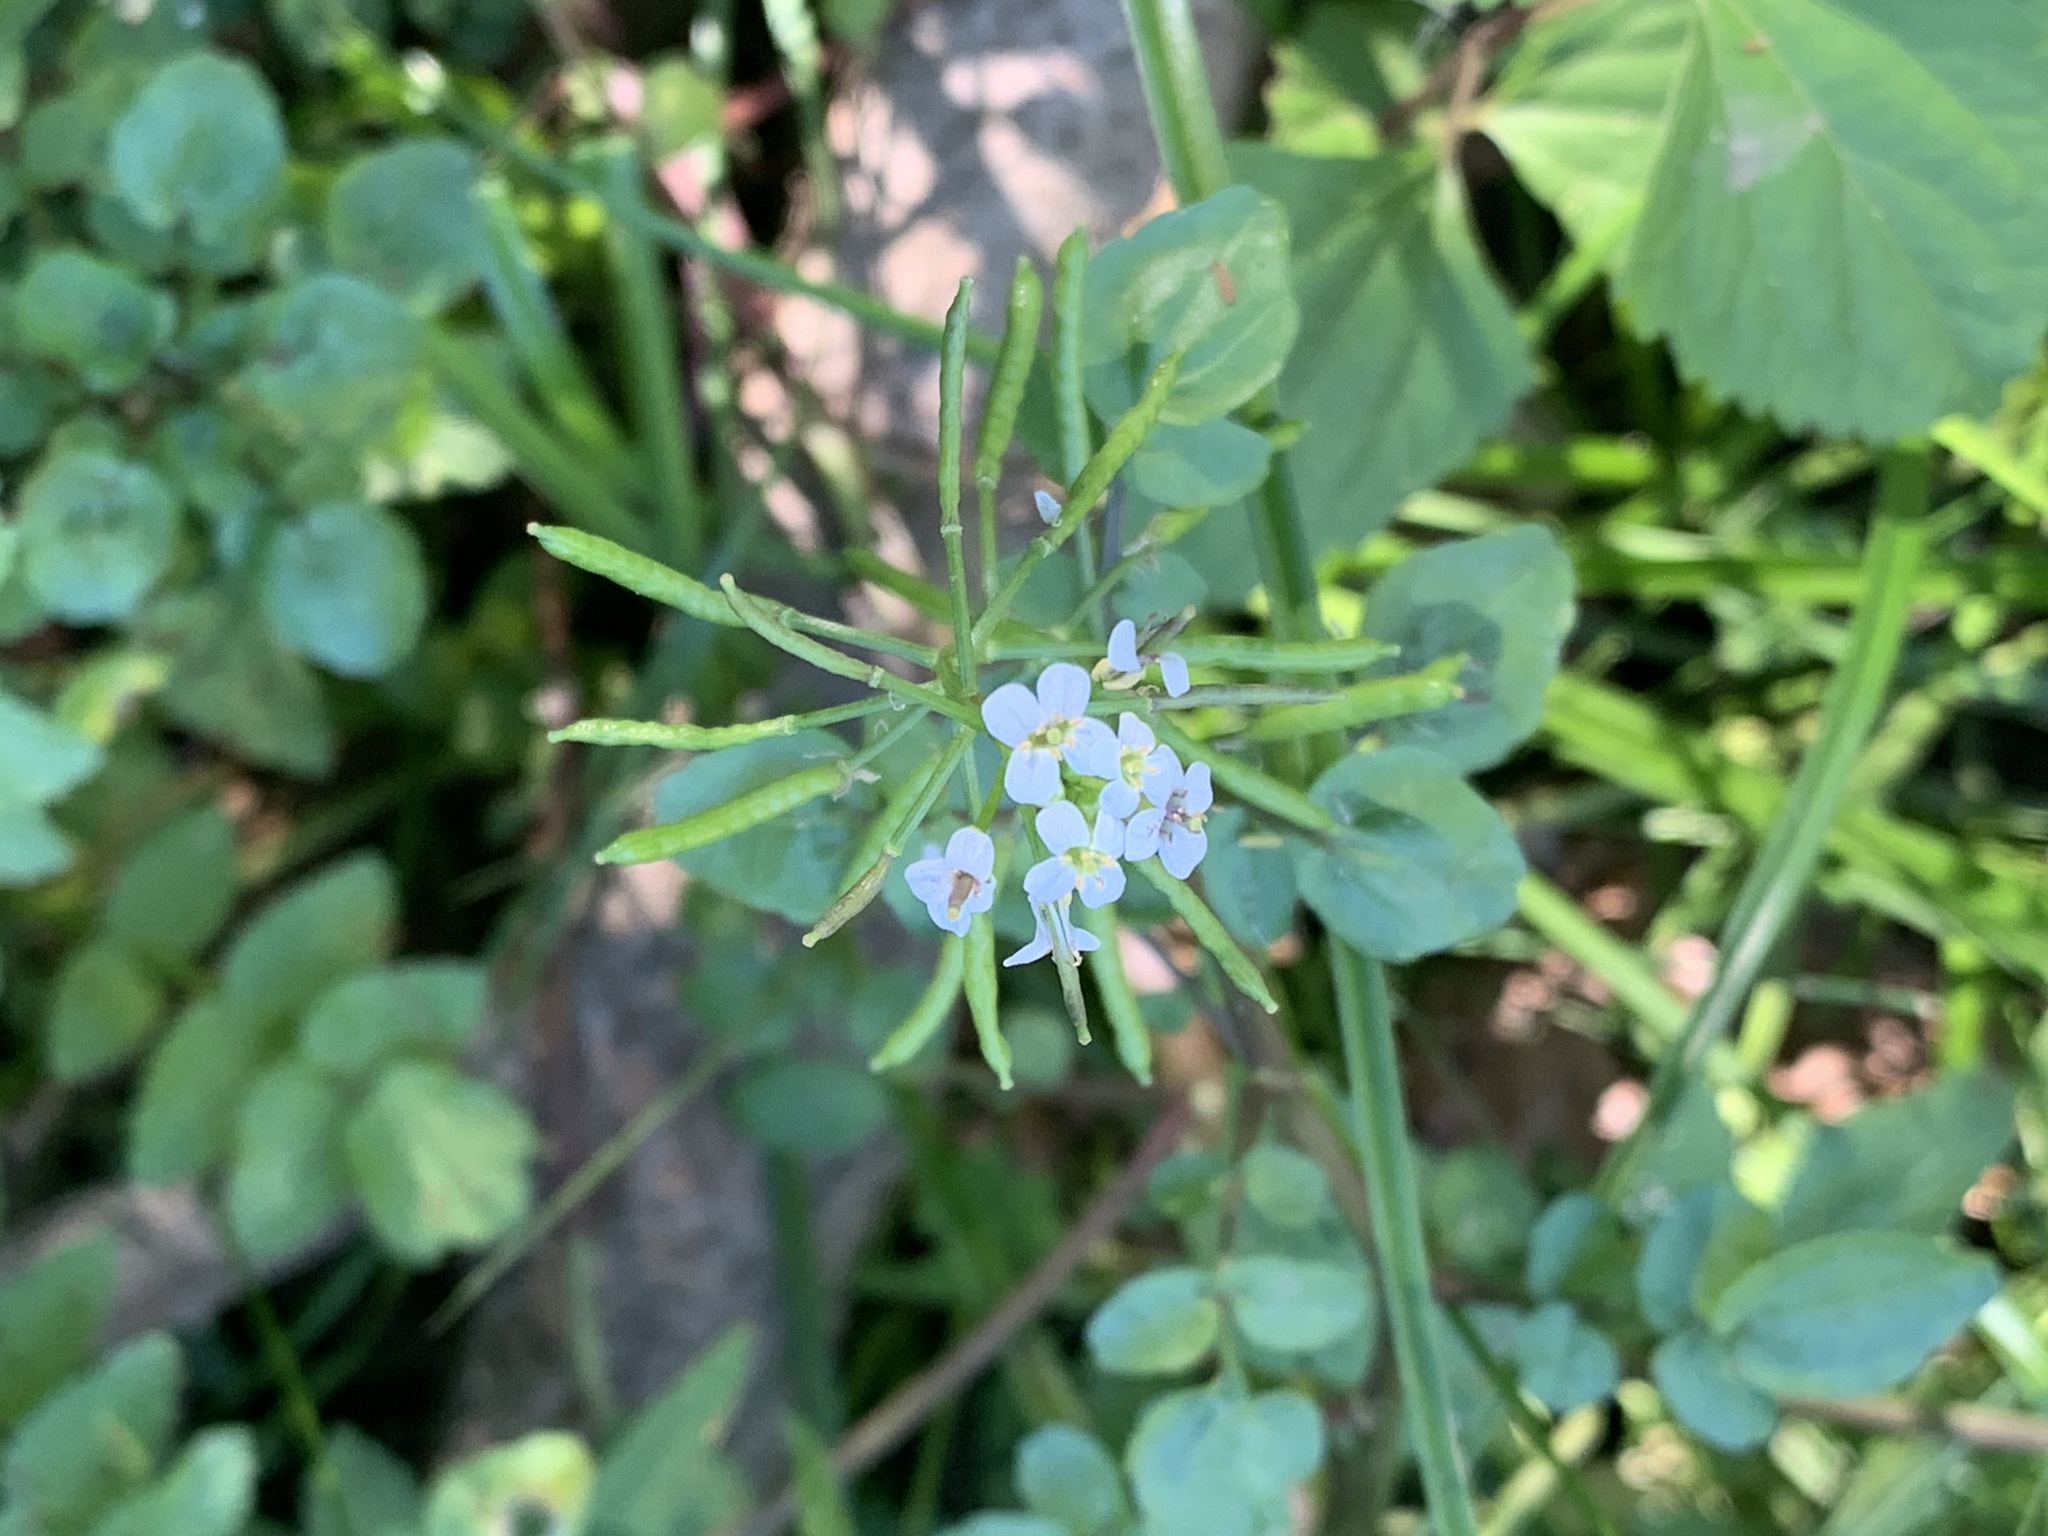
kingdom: Plantae
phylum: Tracheophyta
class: Magnoliopsida
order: Brassicales
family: Brassicaceae
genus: Nasturtium
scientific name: Nasturtium officinale
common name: Watercress
